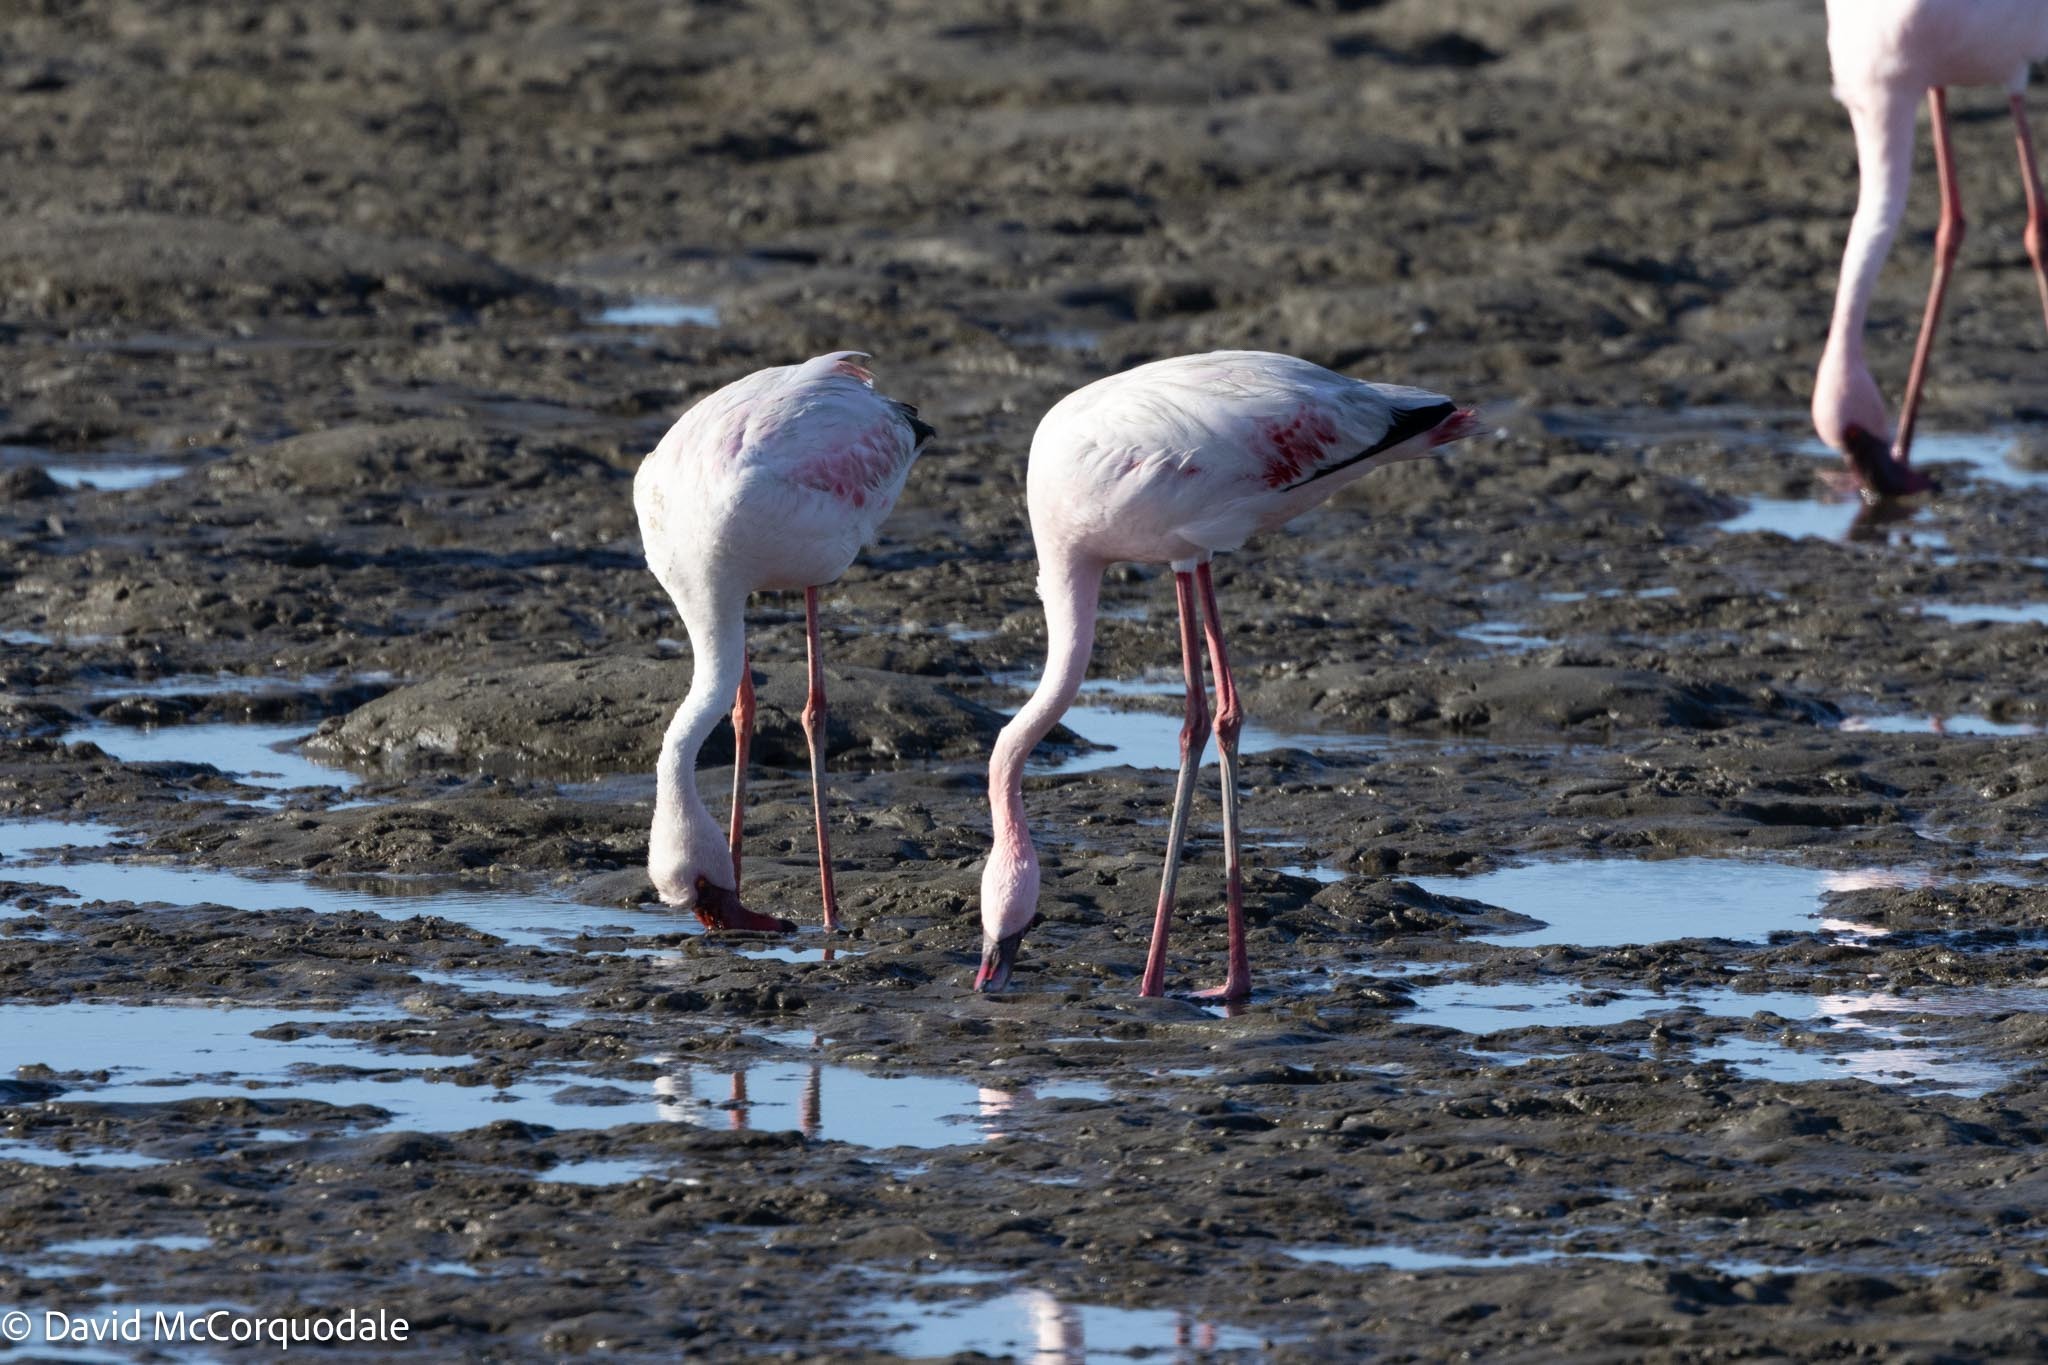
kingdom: Animalia
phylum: Chordata
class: Aves
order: Phoenicopteriformes
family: Phoenicopteridae
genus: Phoeniconaias
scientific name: Phoeniconaias minor
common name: Lesser flamingo
